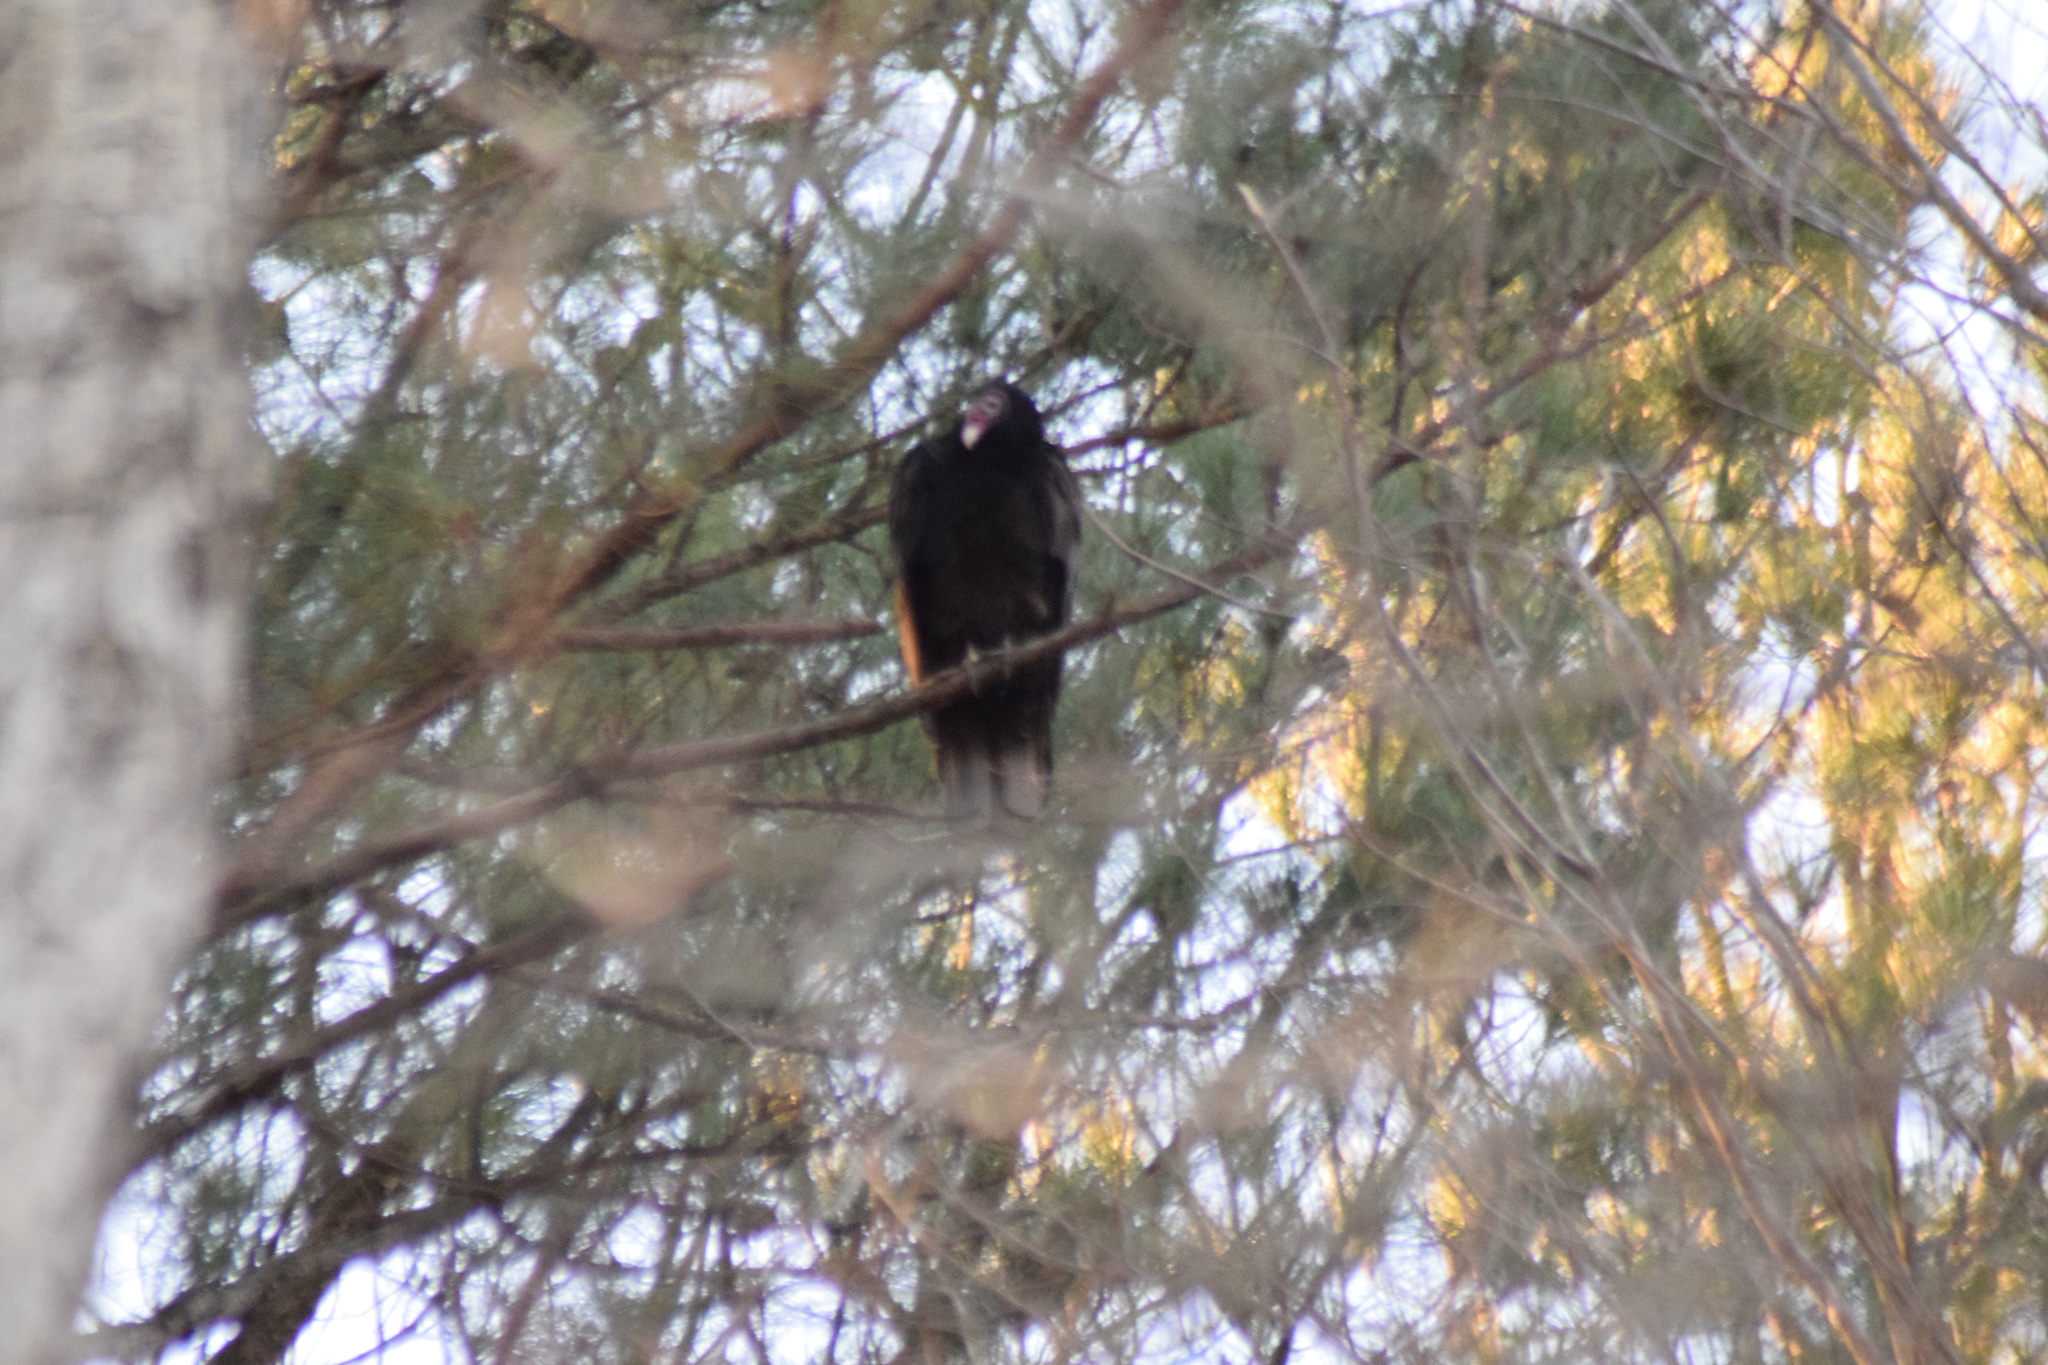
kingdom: Animalia
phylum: Chordata
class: Aves
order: Accipitriformes
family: Cathartidae
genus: Cathartes
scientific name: Cathartes aura
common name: Turkey vulture
